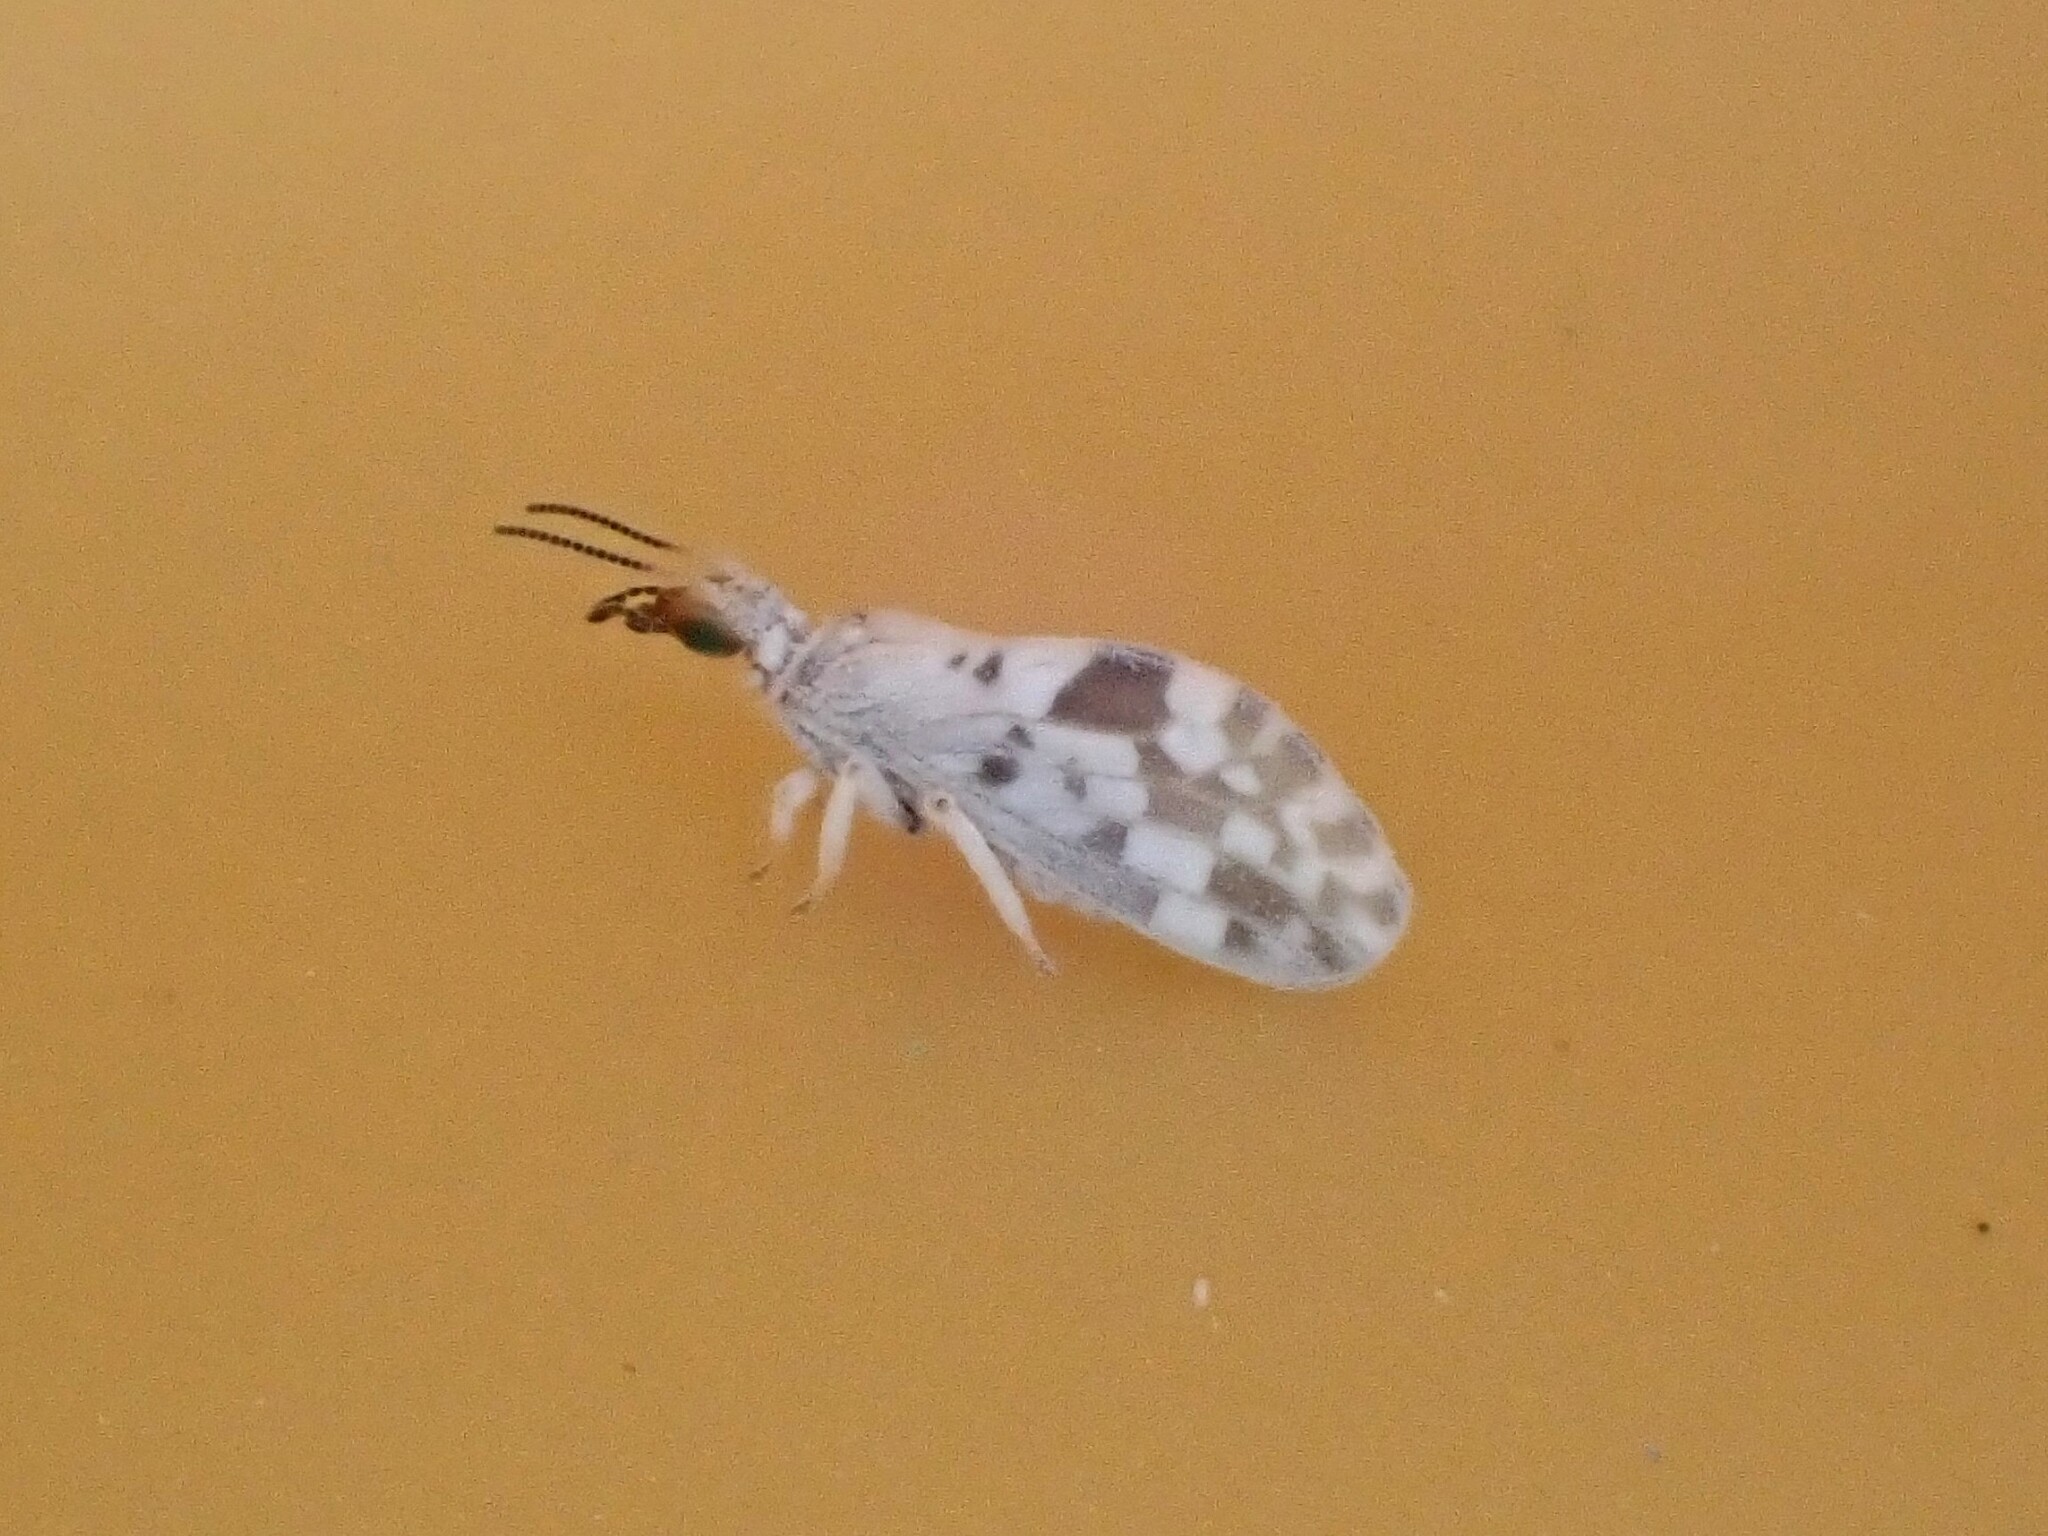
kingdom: Animalia
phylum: Arthropoda
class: Insecta
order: Neuroptera
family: Coniopterygidae
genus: Heteroconis
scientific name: Heteroconis ornata
